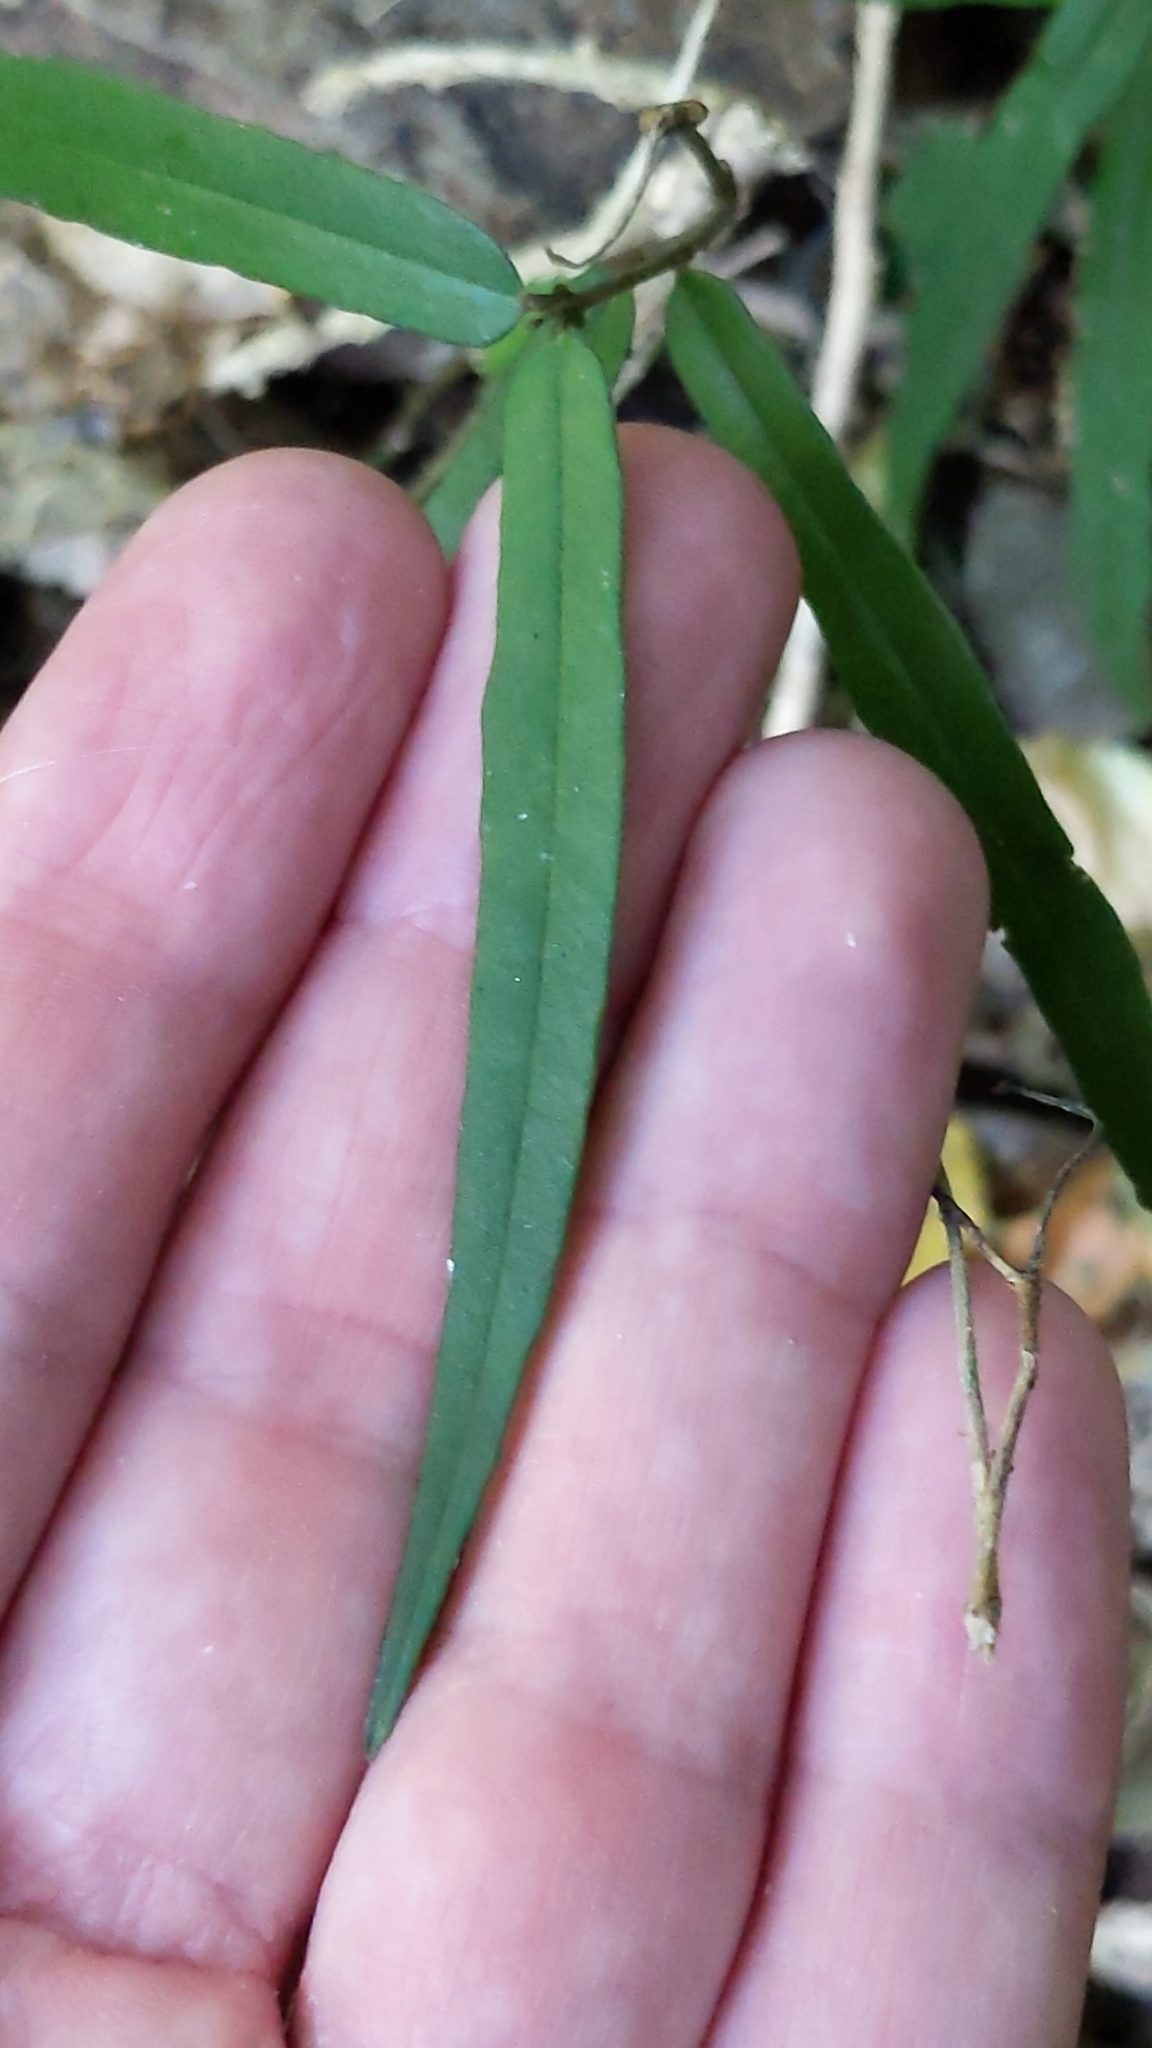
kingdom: Plantae
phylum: Tracheophyta
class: Magnoliopsida
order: Gentianales
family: Apocynaceae
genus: Parsonsia
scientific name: Parsonsia capsularis
